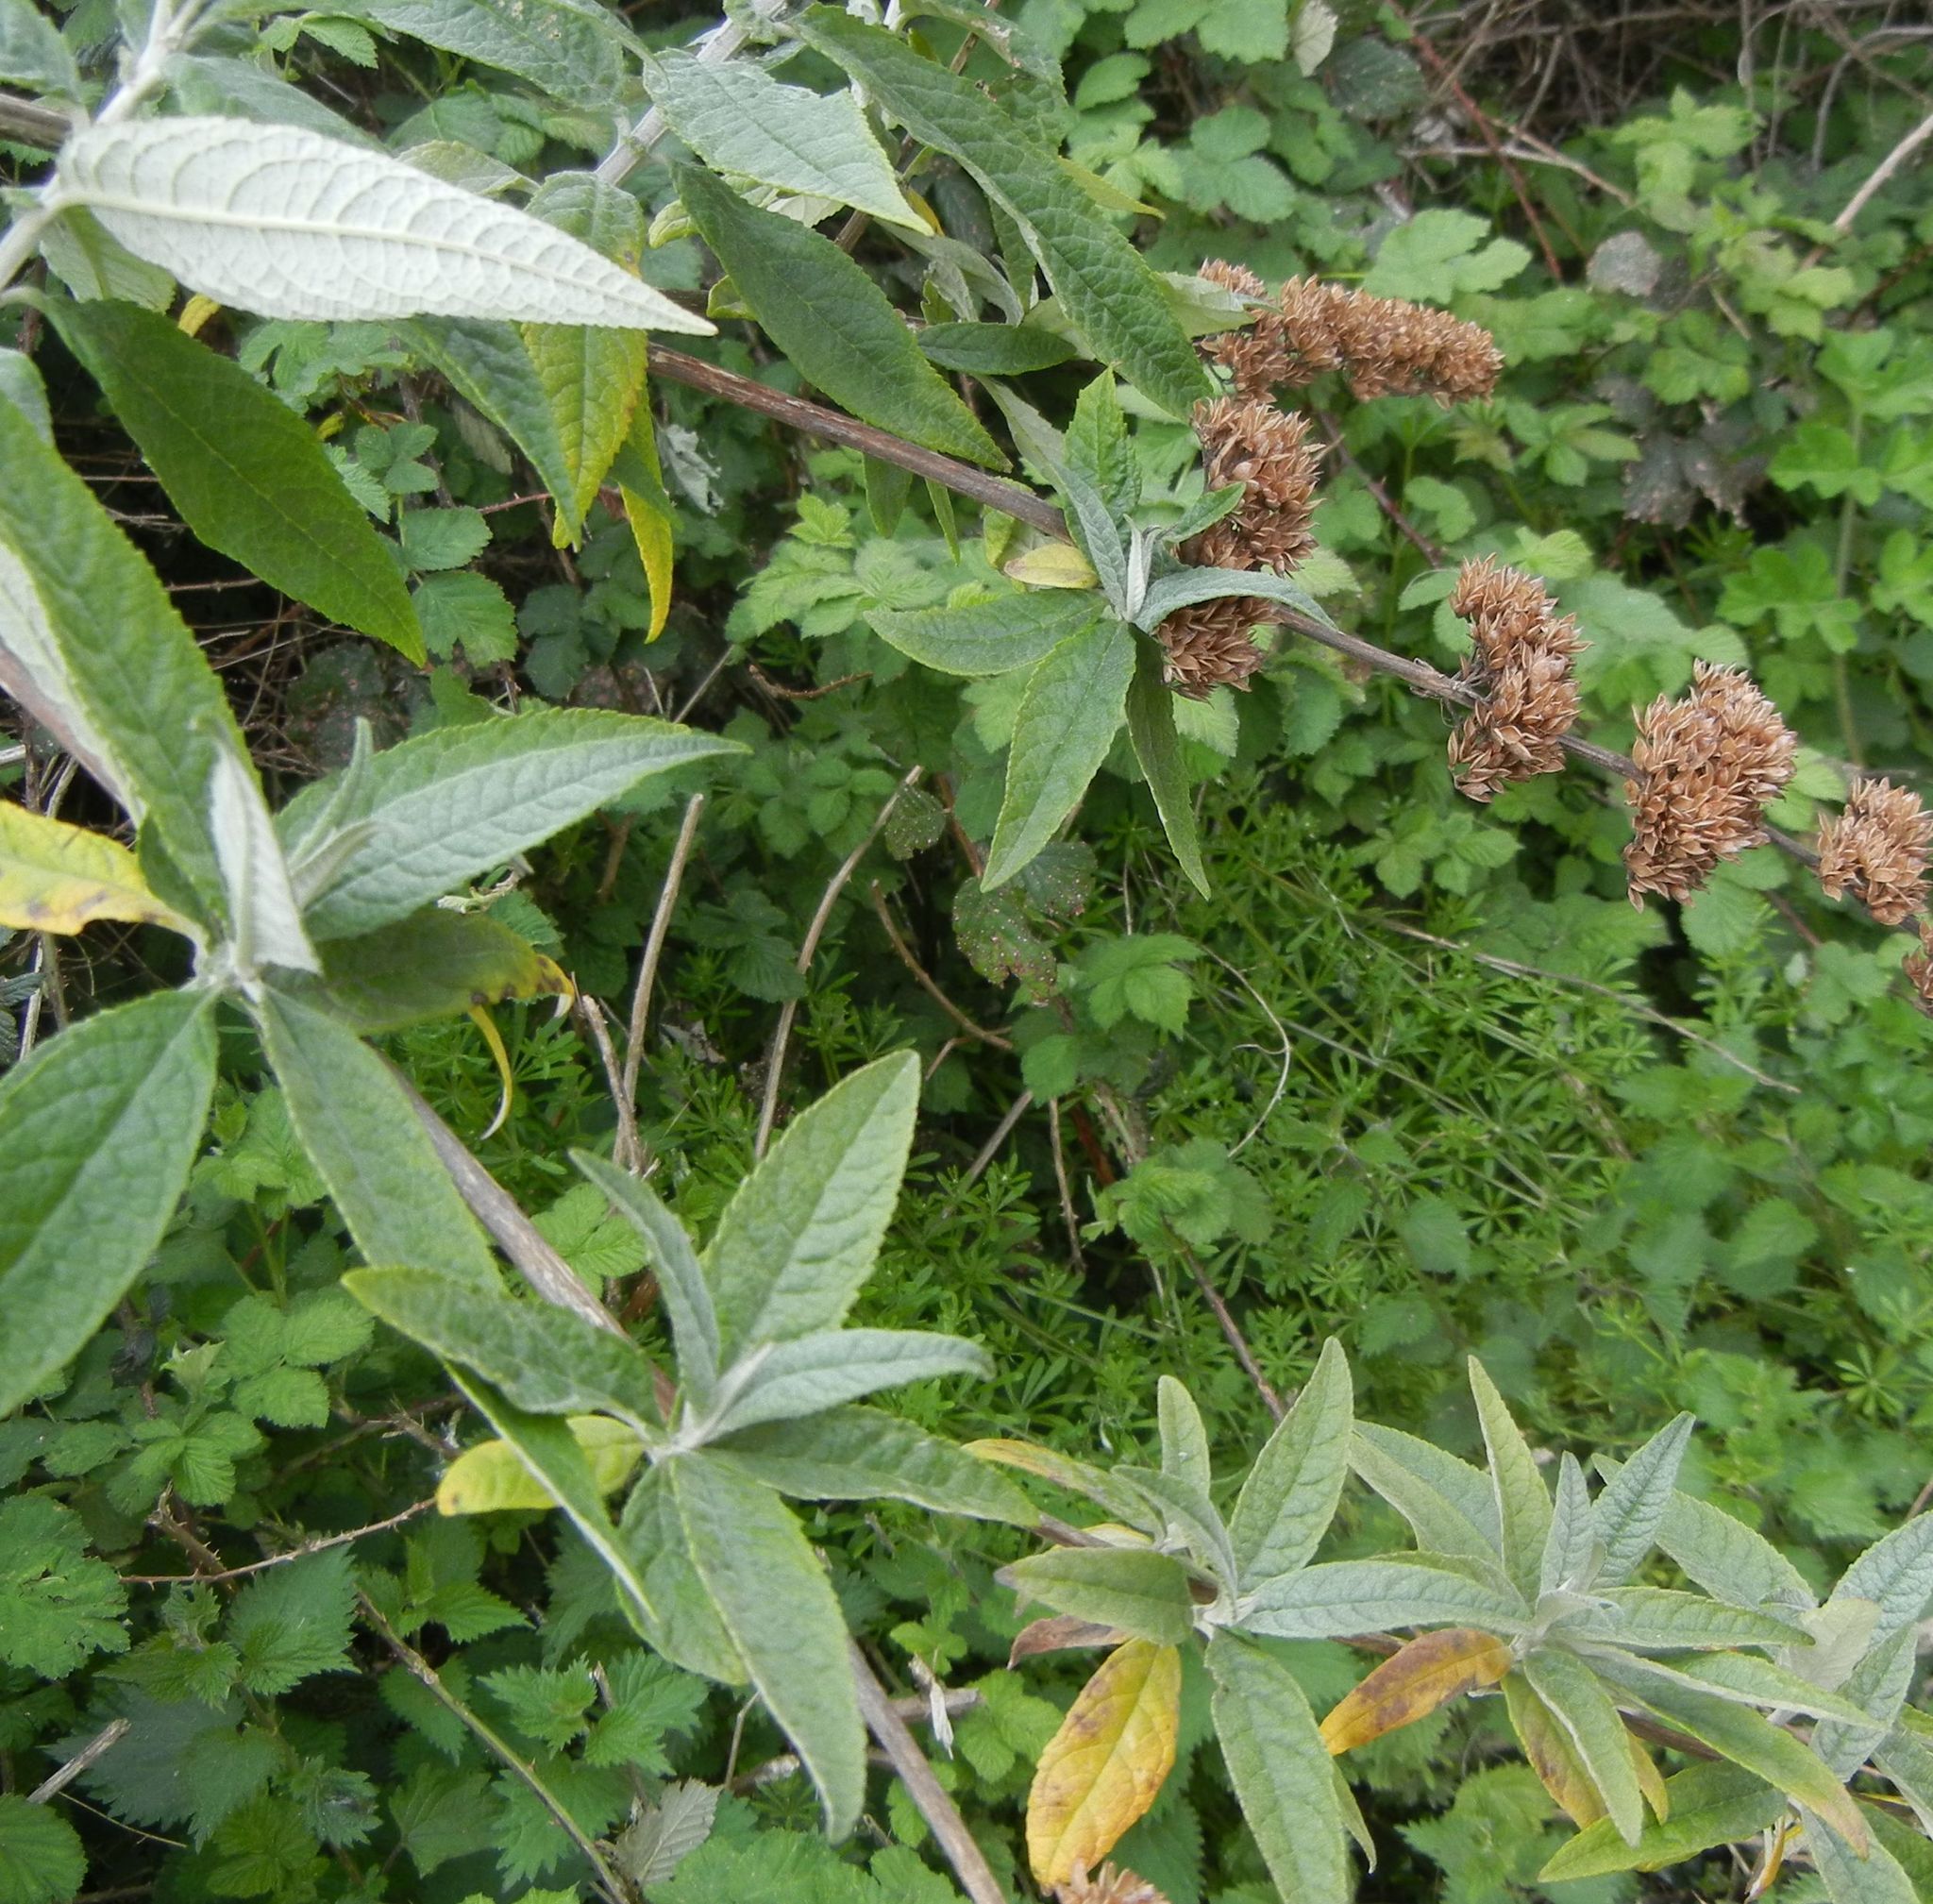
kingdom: Plantae
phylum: Tracheophyta
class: Magnoliopsida
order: Lamiales
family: Scrophulariaceae
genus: Buddleja
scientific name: Buddleja davidii
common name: Butterfly-bush
